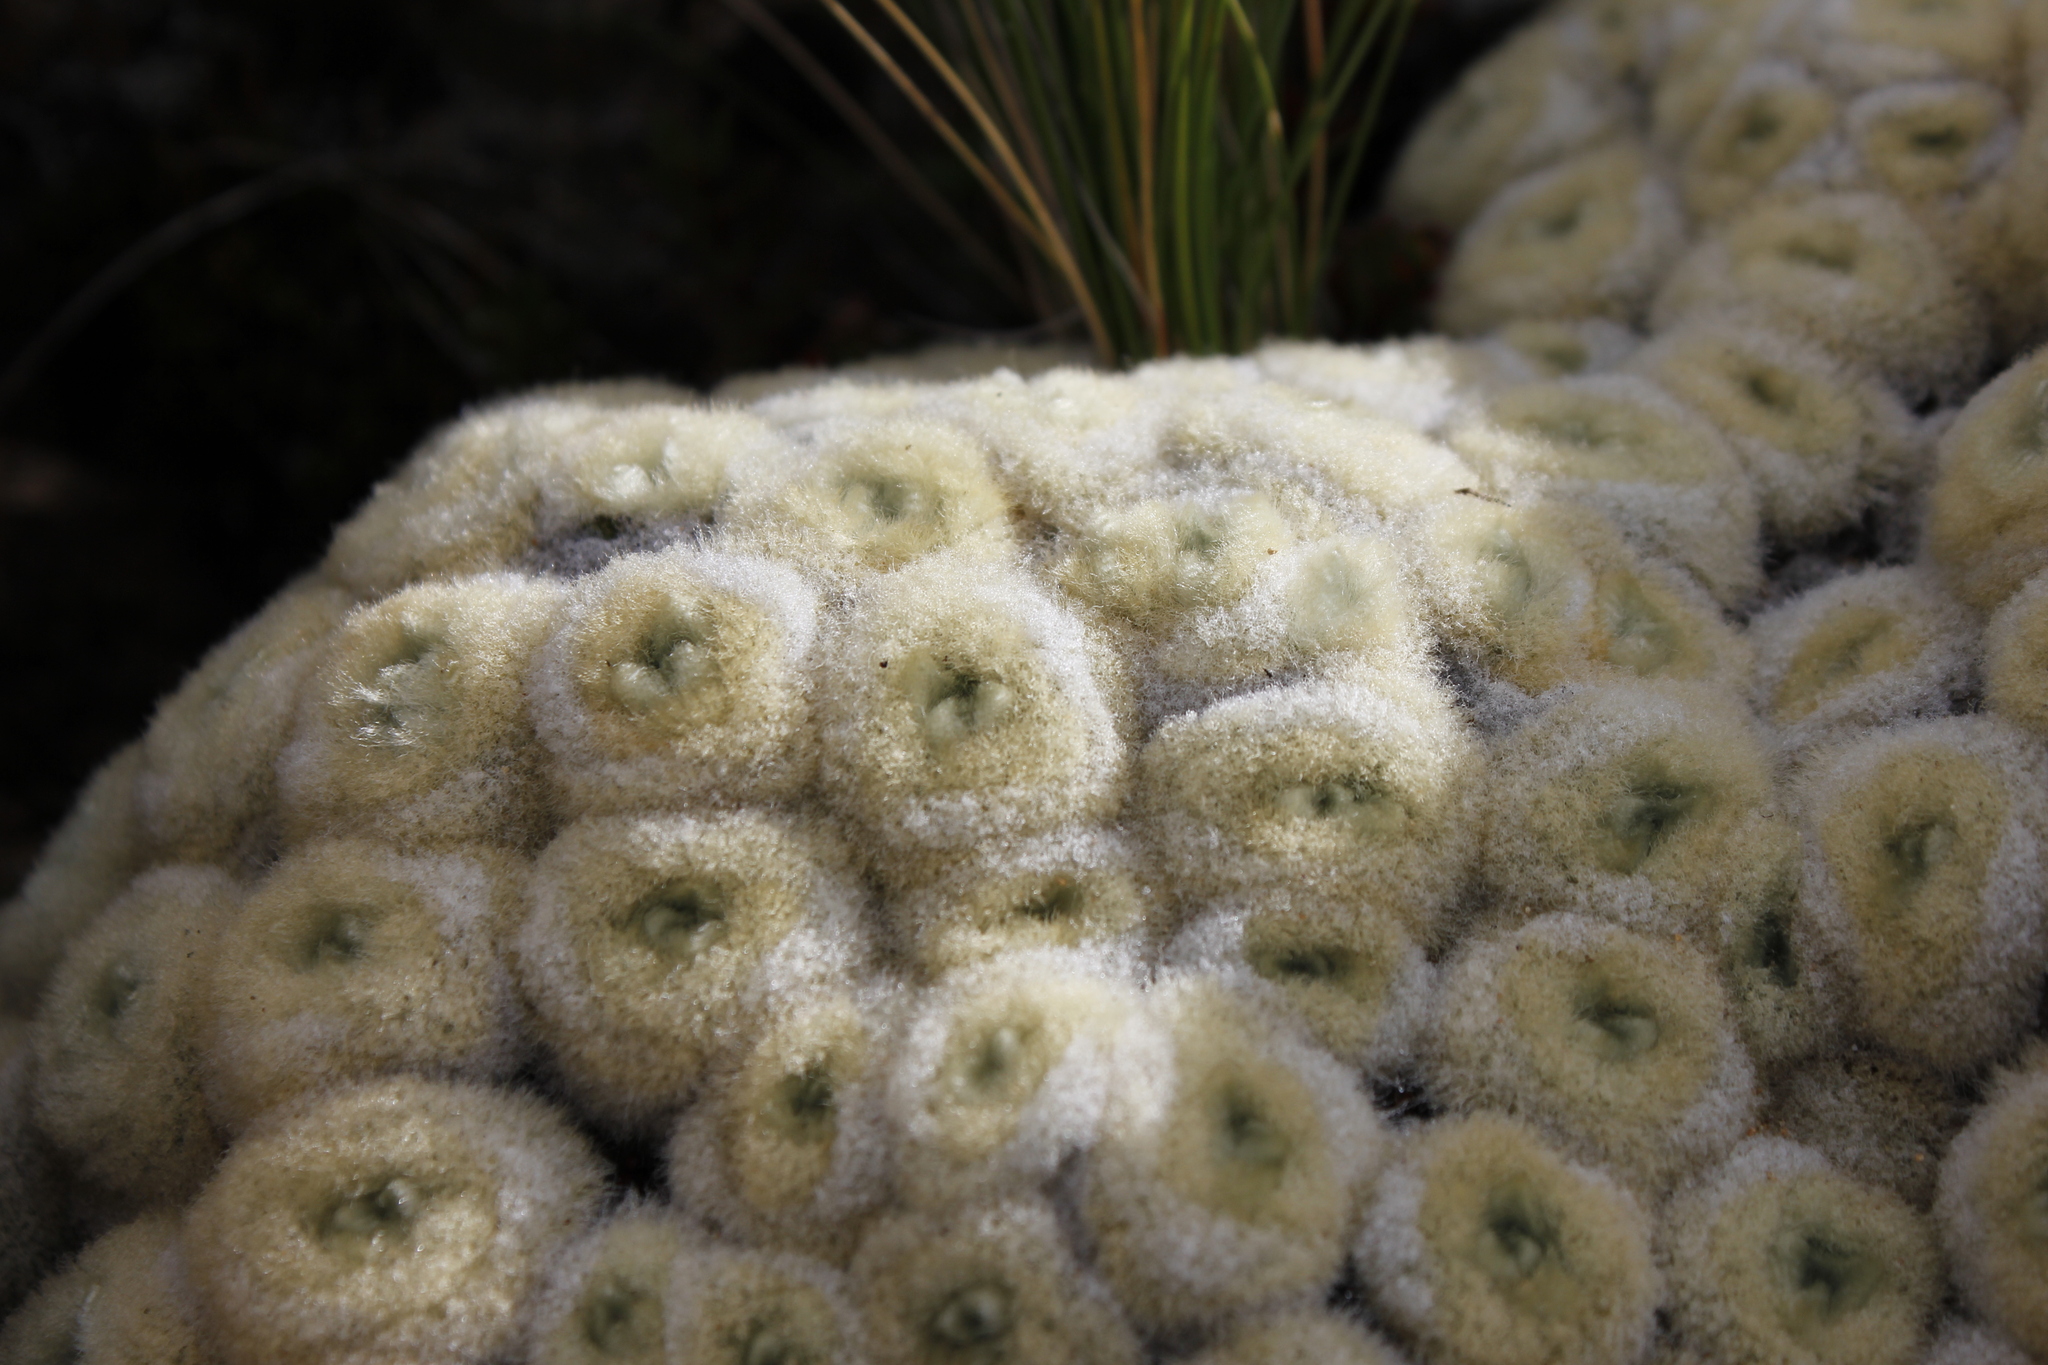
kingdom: Plantae
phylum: Tracheophyta
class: Magnoliopsida
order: Asterales
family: Asteraceae
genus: Haastia
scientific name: Haastia pulvinaris
